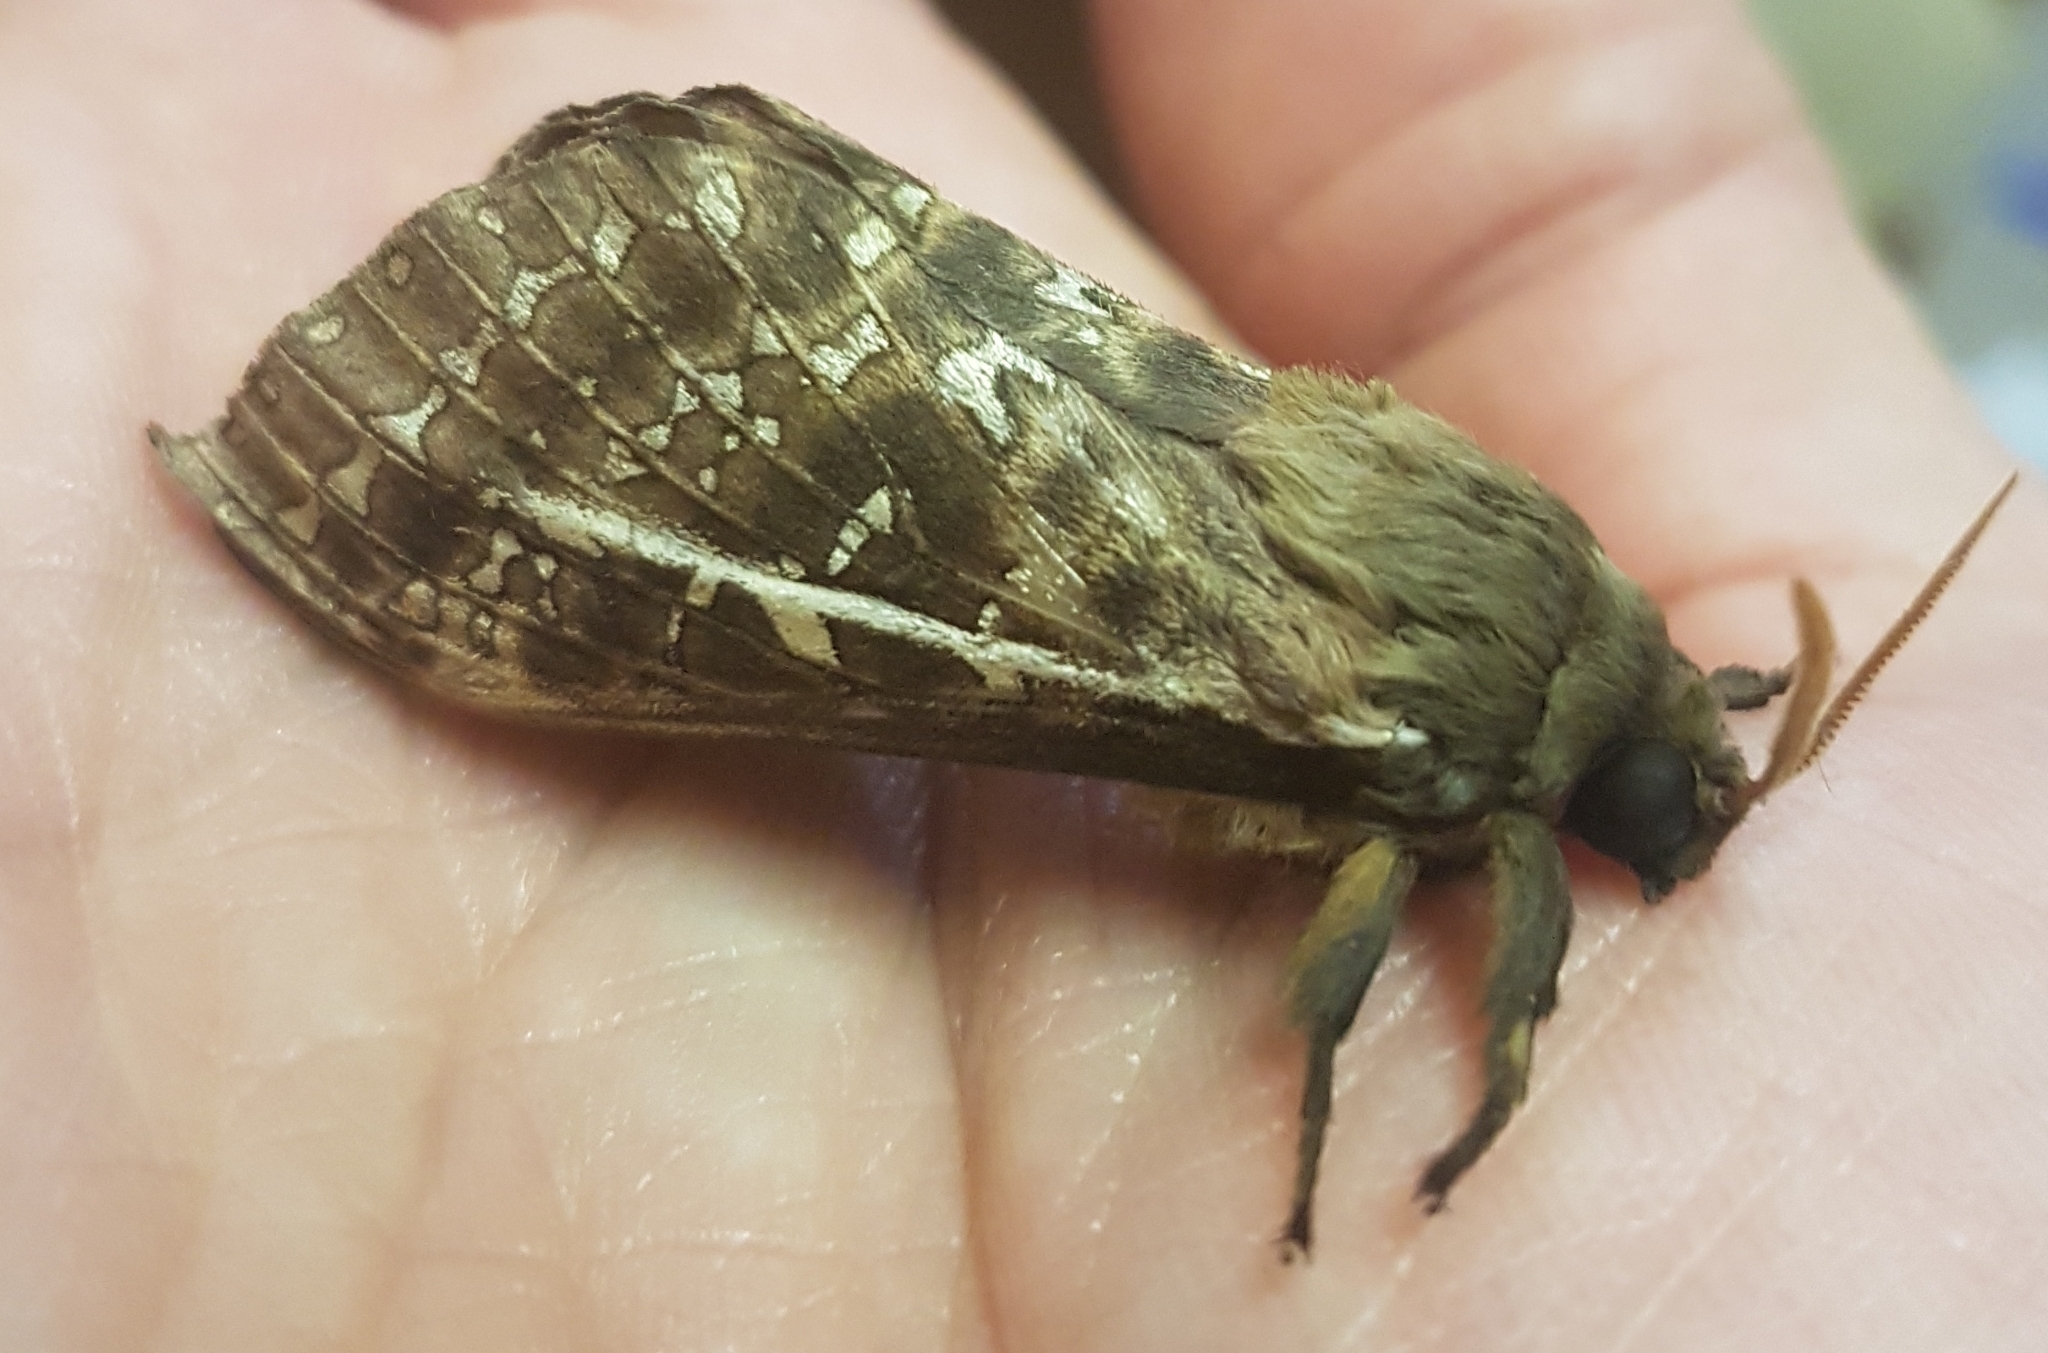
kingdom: Animalia
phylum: Arthropoda
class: Insecta
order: Lepidoptera
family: Hepialidae
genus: Oxycanus
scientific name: Oxycanus
